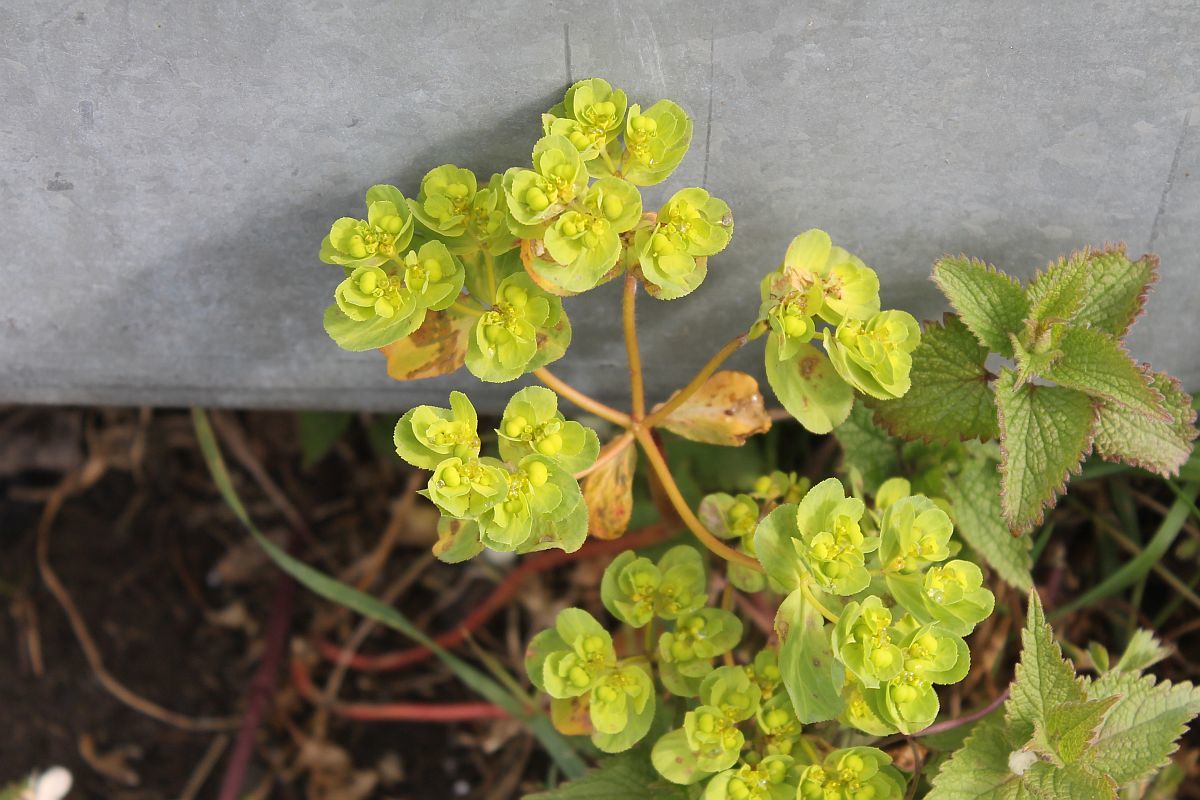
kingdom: Plantae
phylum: Tracheophyta
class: Magnoliopsida
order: Malpighiales
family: Euphorbiaceae
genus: Euphorbia
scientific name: Euphorbia helioscopia
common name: Sun spurge
